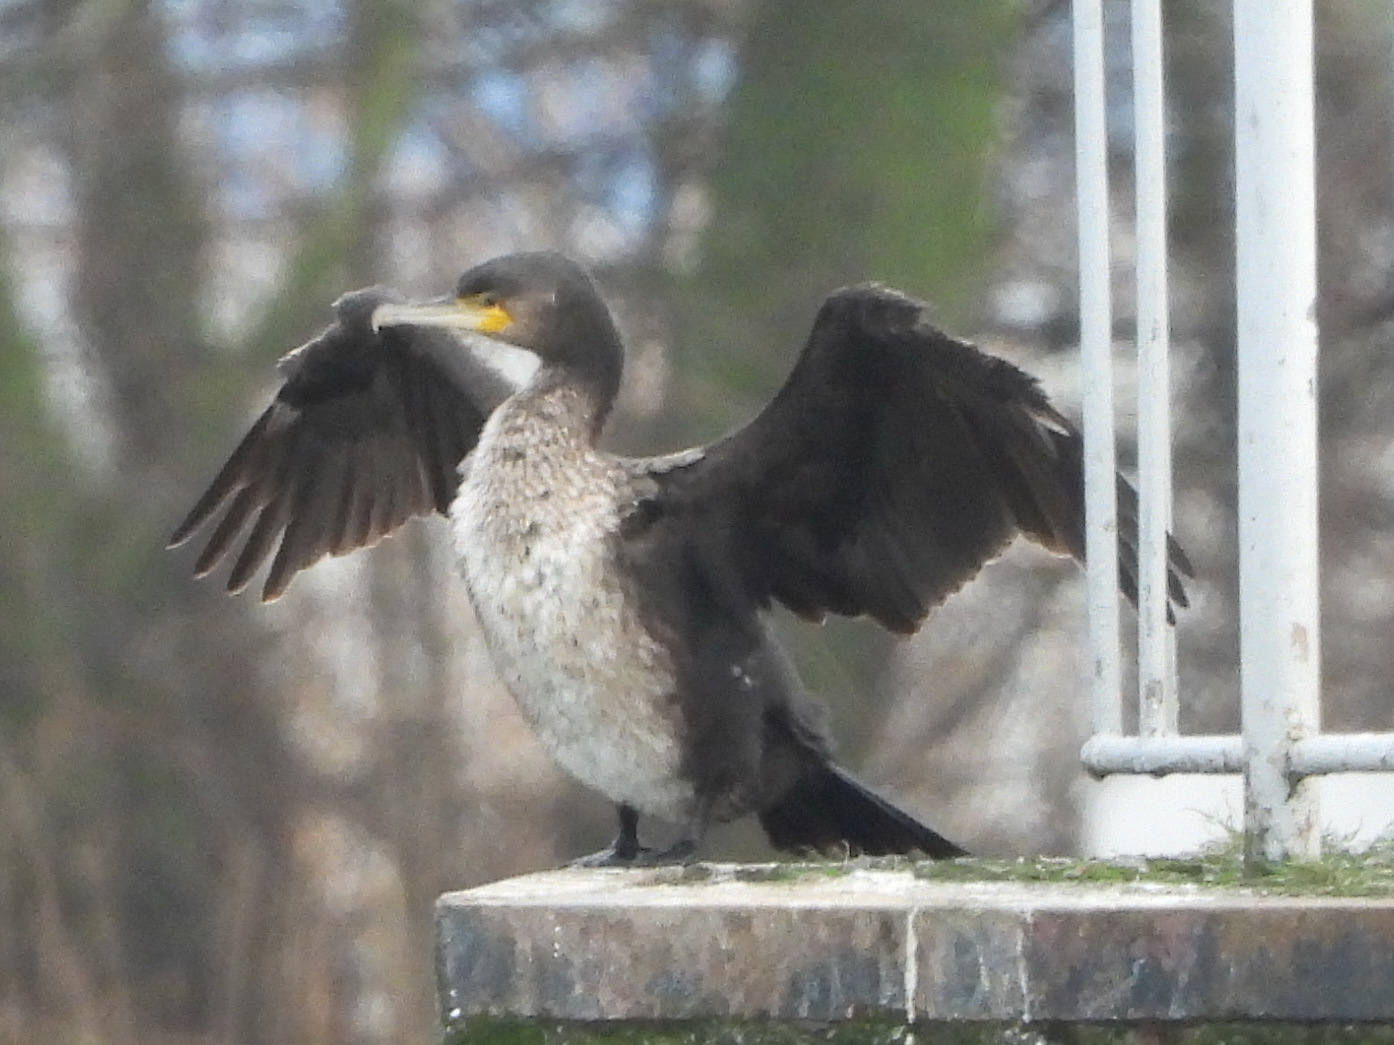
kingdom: Animalia
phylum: Chordata
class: Aves
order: Suliformes
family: Phalacrocoracidae
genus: Phalacrocorax
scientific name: Phalacrocorax carbo
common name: Great cormorant
